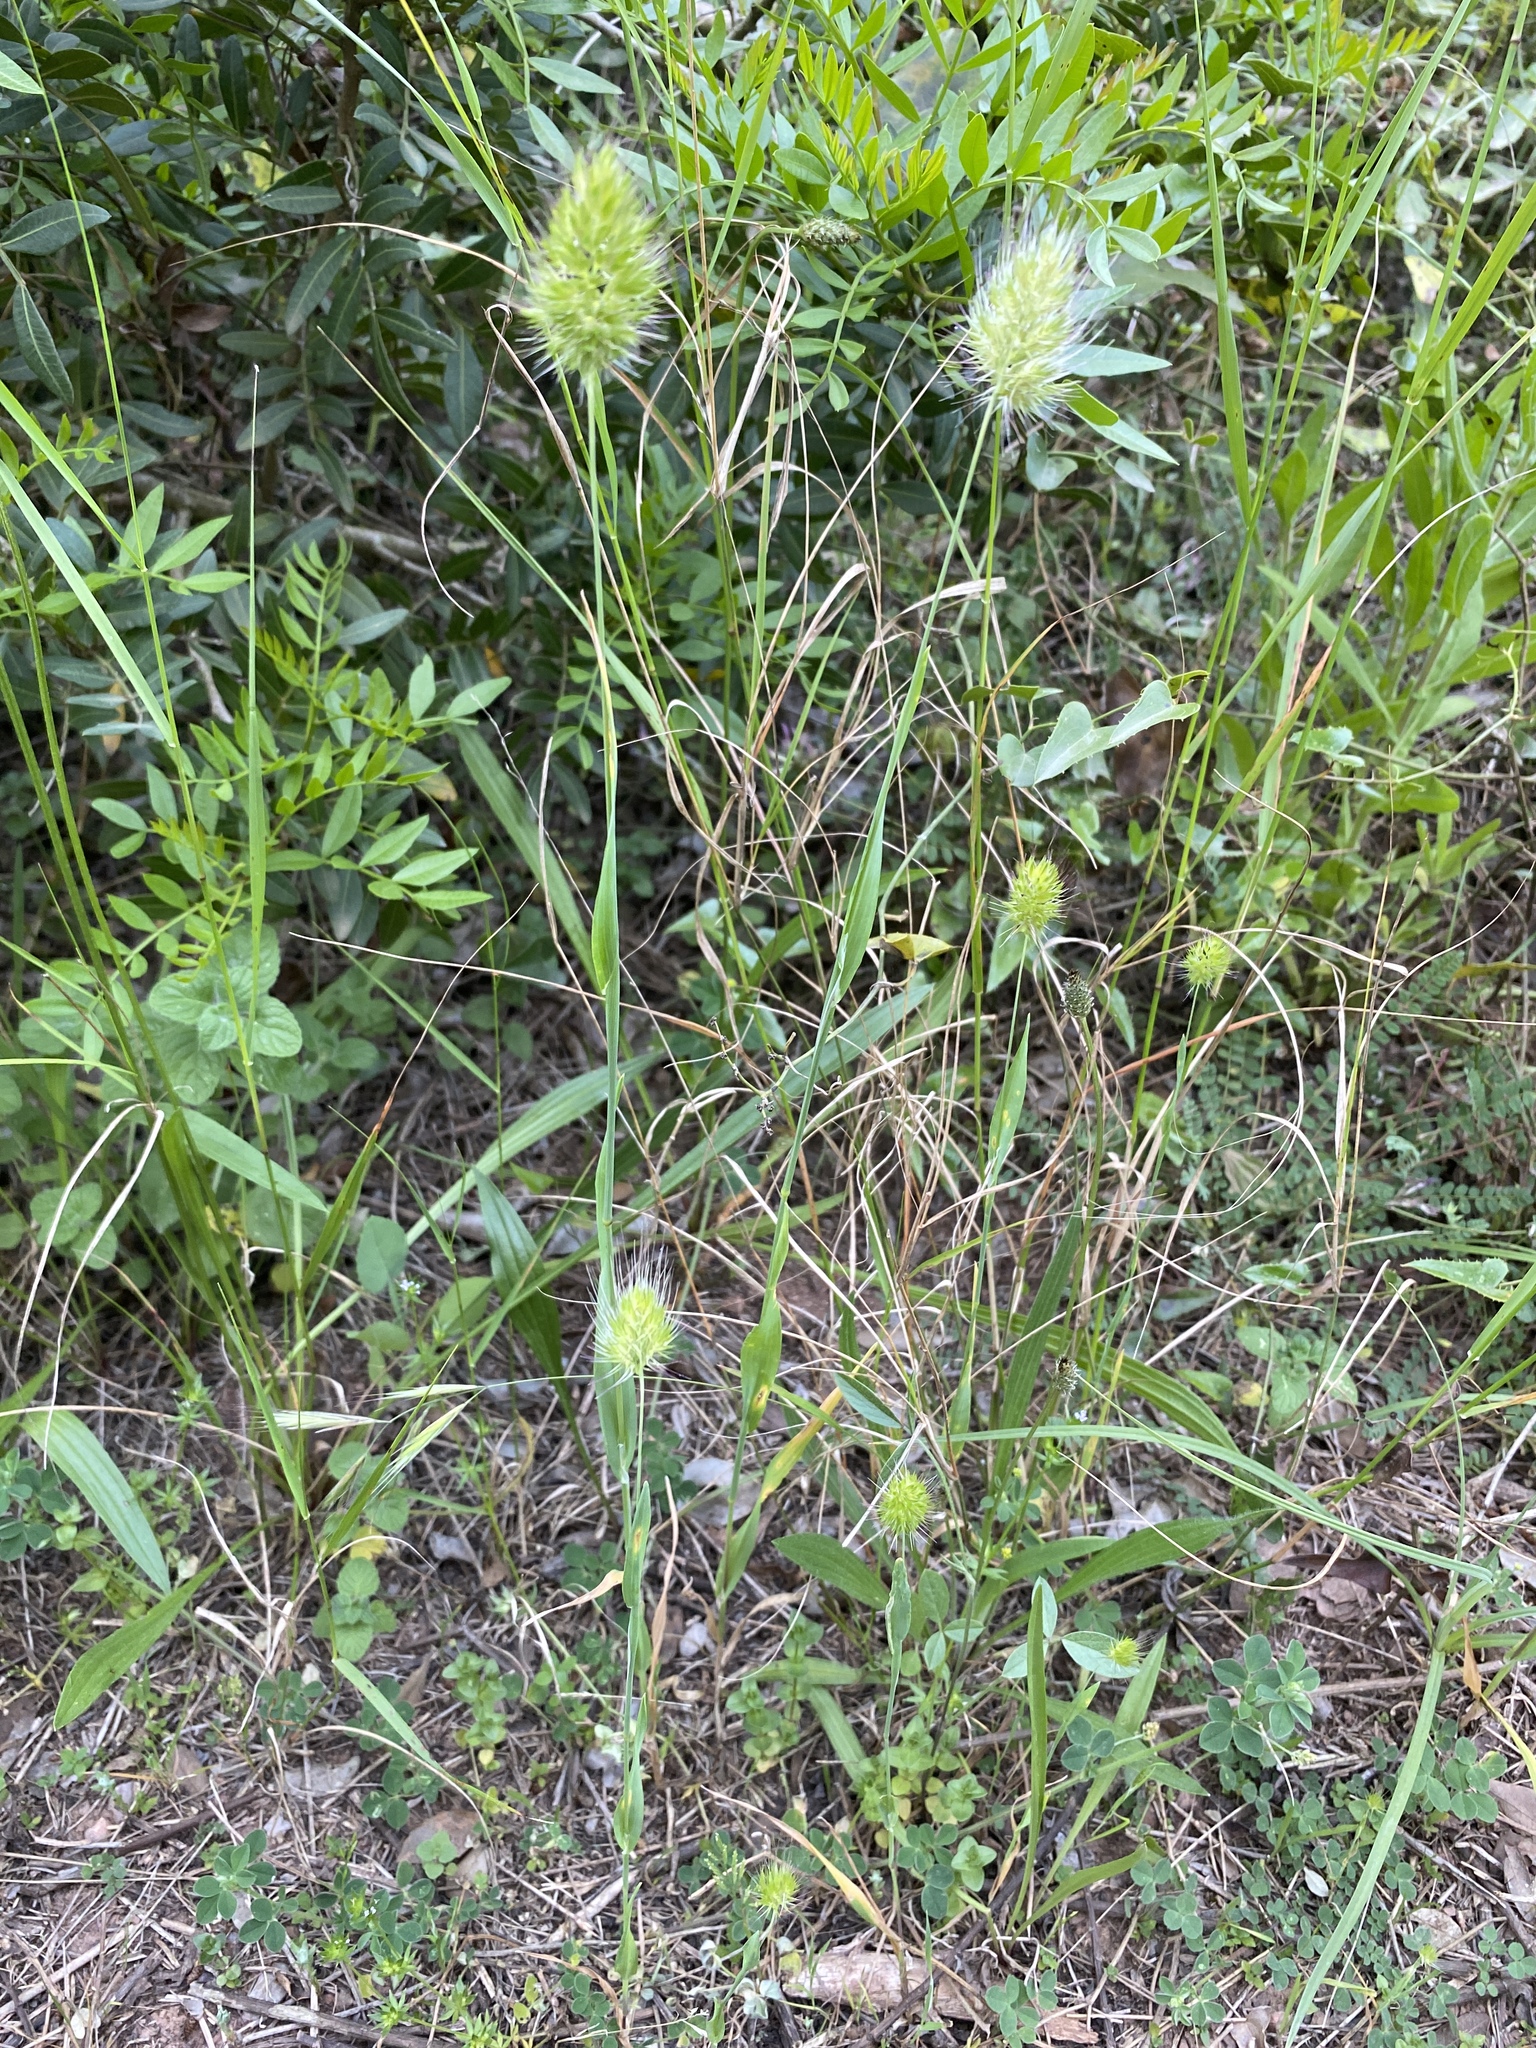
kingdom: Plantae
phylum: Tracheophyta
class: Liliopsida
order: Poales
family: Poaceae
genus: Cynosurus
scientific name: Cynosurus echinatus
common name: Rough dog's-tail
